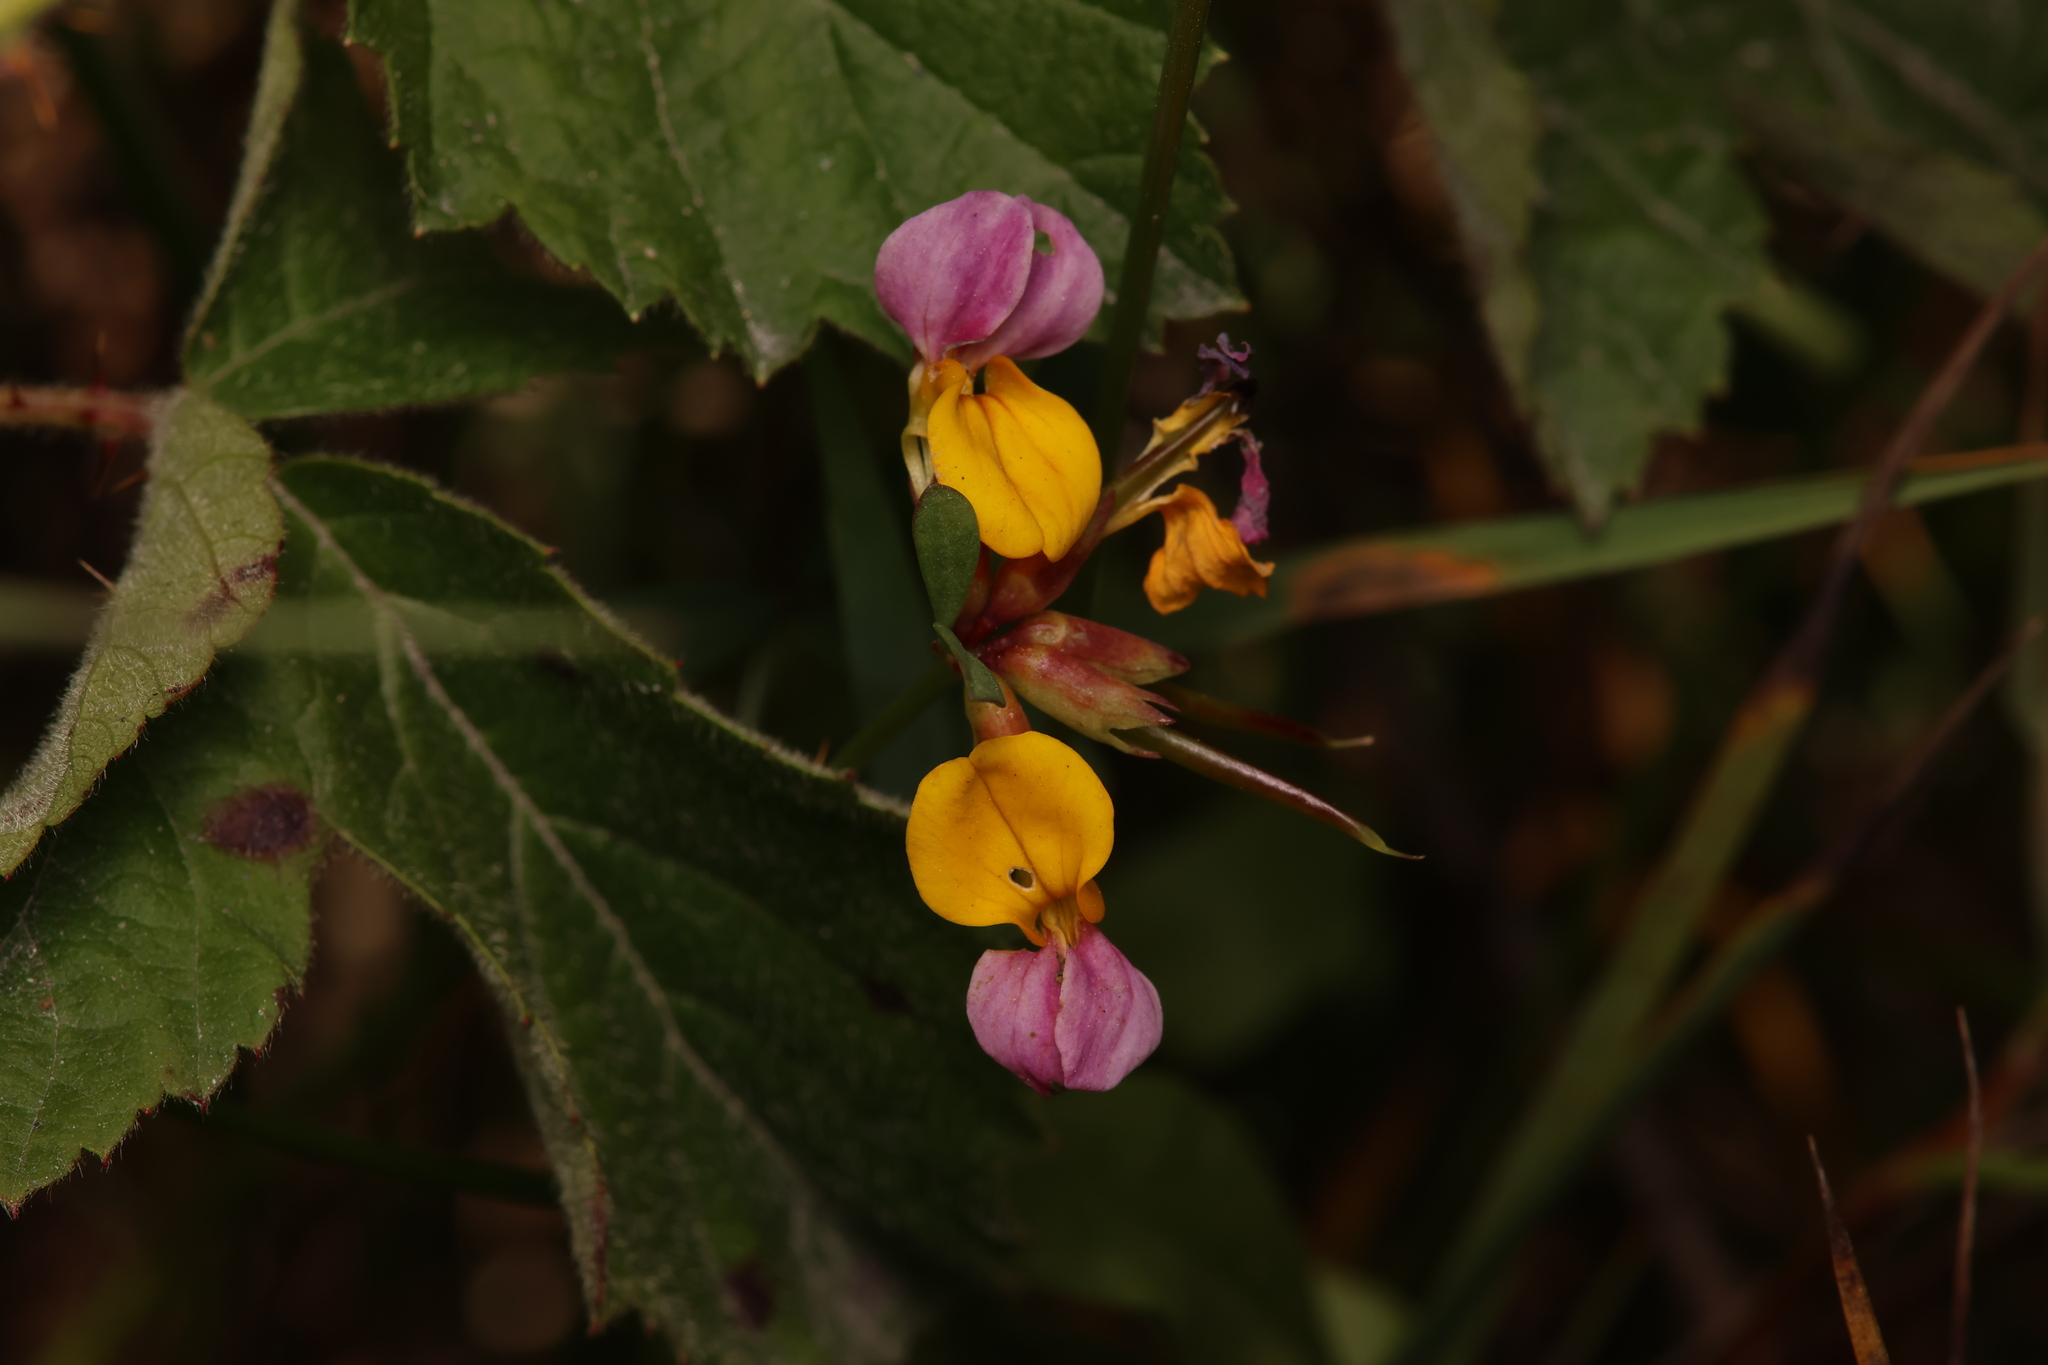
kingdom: Plantae
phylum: Tracheophyta
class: Magnoliopsida
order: Fabales
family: Fabaceae
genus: Hosackia
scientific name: Hosackia gracilis
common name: Seaside bird's-foot lotus
